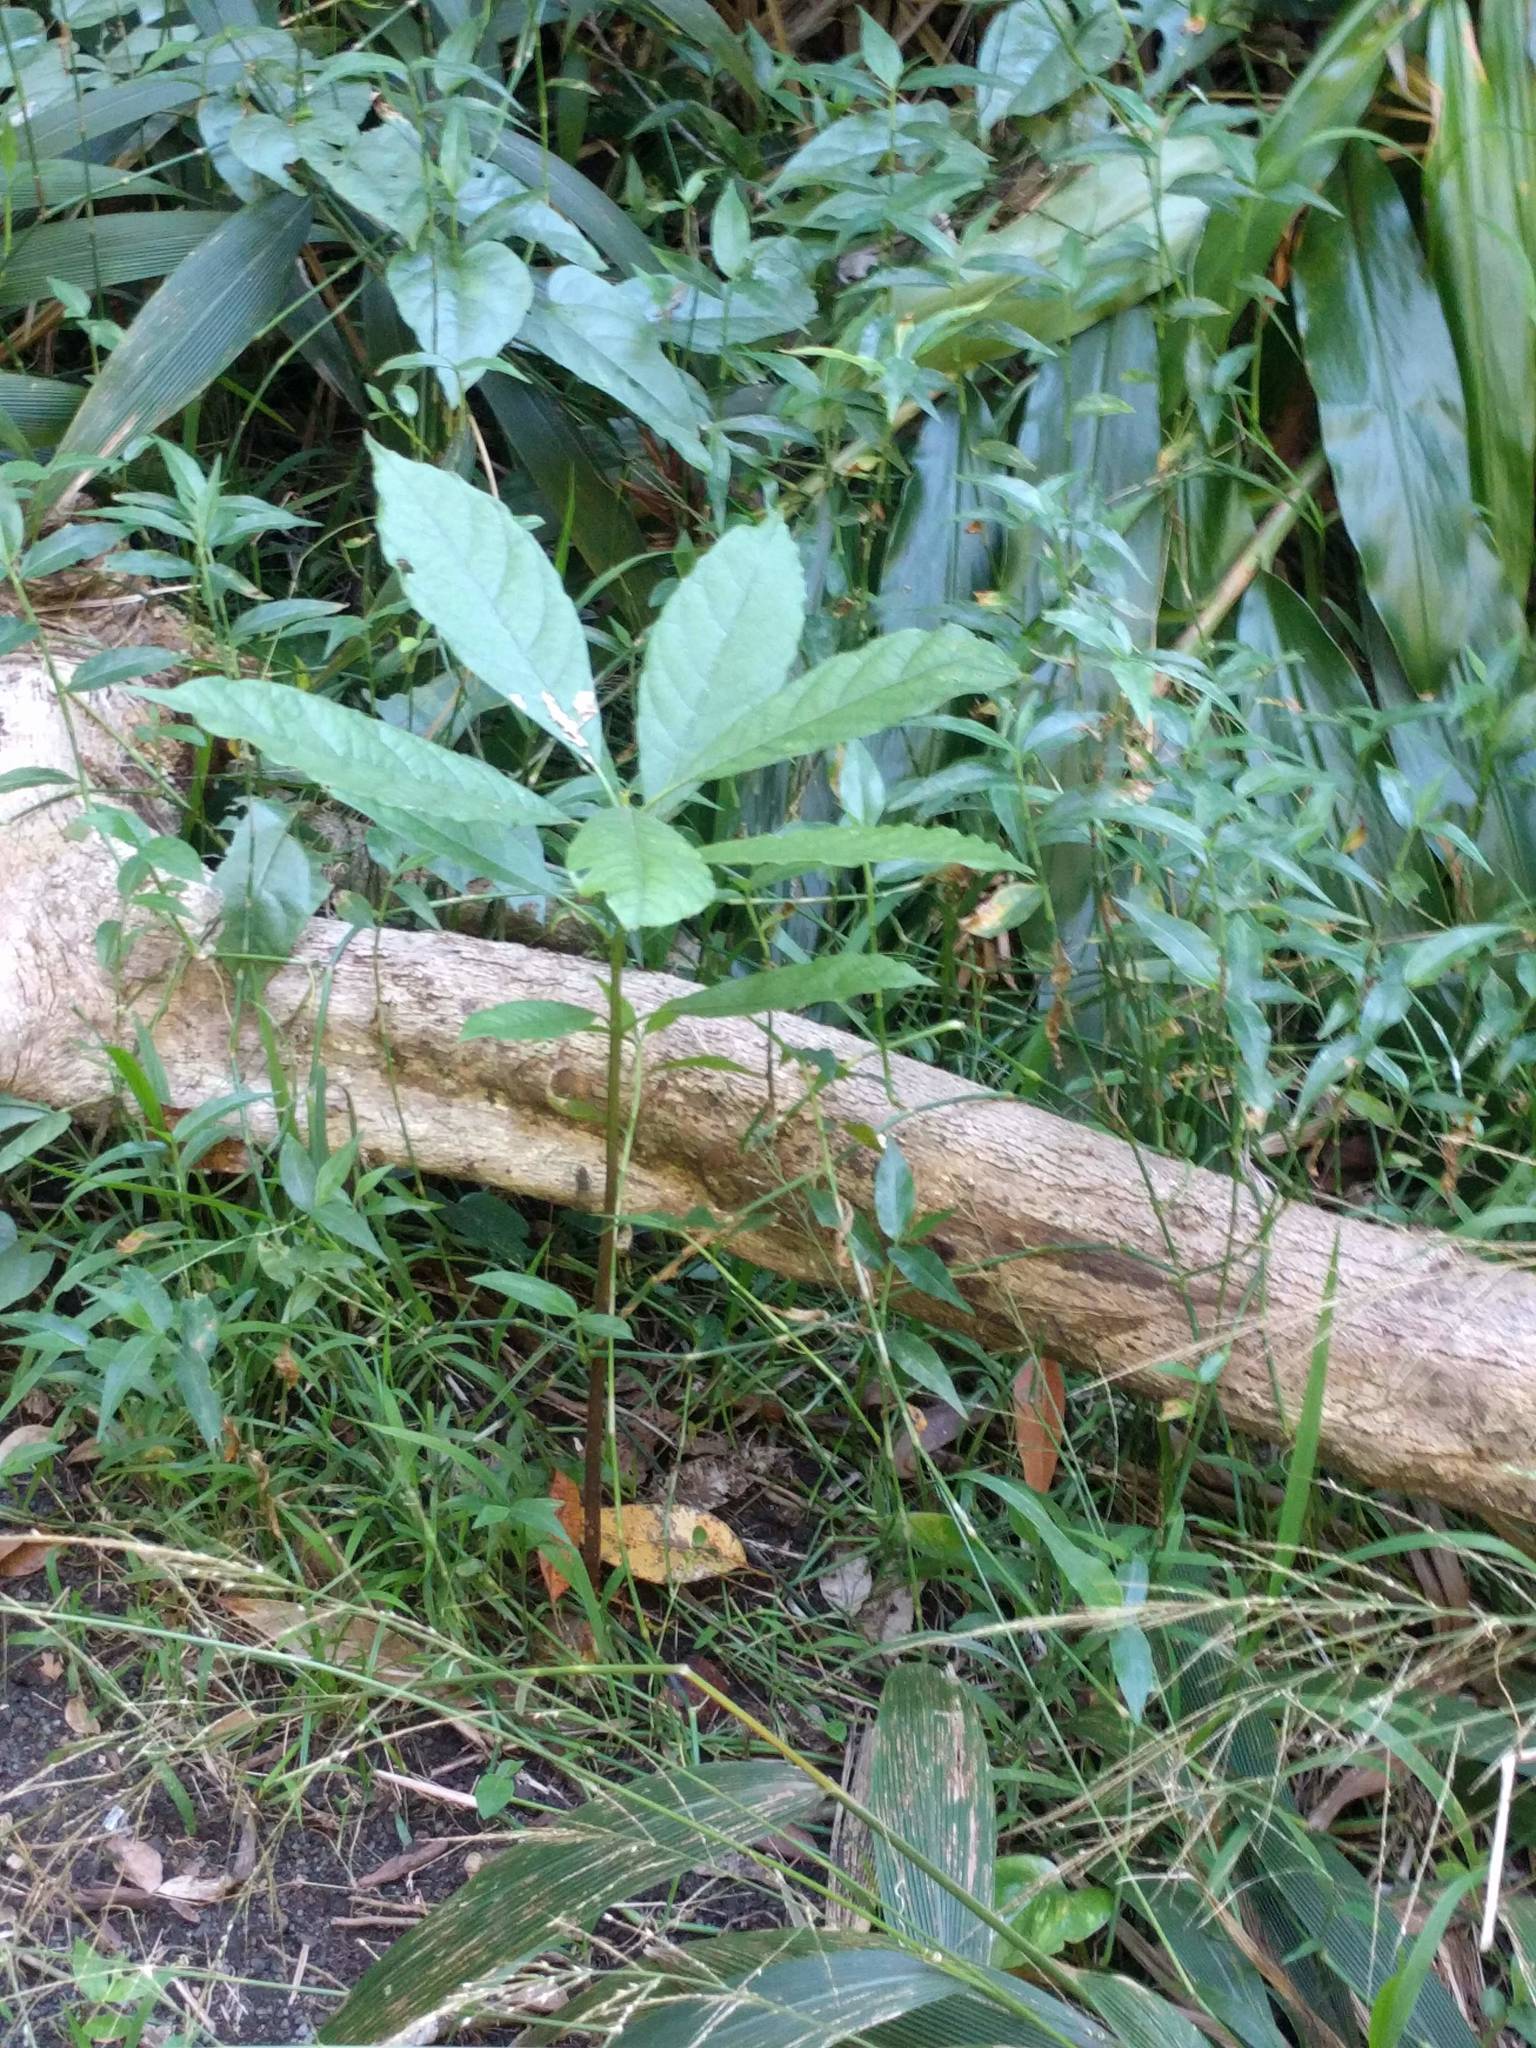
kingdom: Plantae
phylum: Tracheophyta
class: Magnoliopsida
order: Laurales
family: Lauraceae
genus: Persea
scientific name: Persea americana
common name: Avocado
